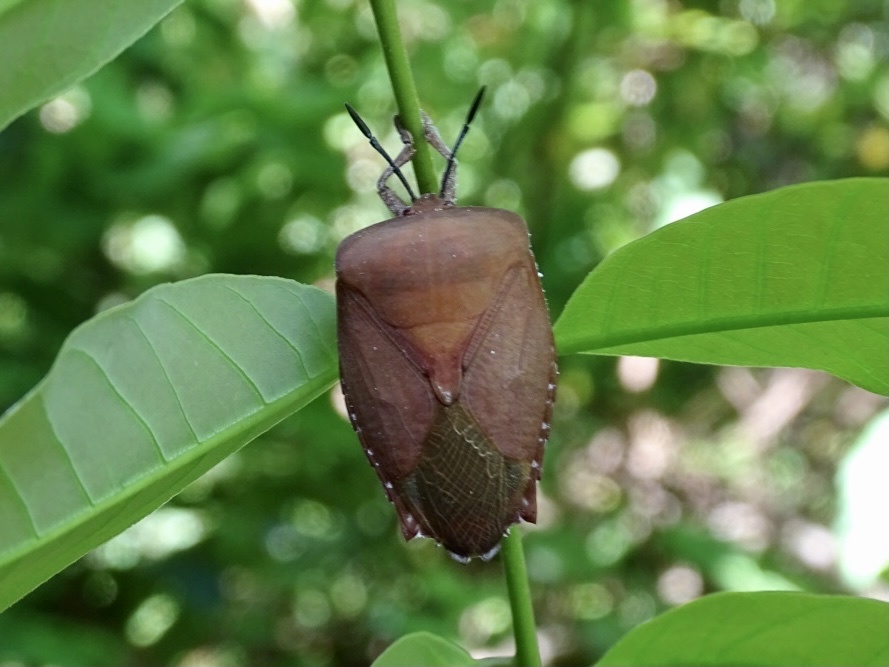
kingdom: Animalia
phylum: Arthropoda
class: Insecta
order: Hemiptera
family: Tessaratomidae
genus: Tessaratoma
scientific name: Tessaratoma papillosa
